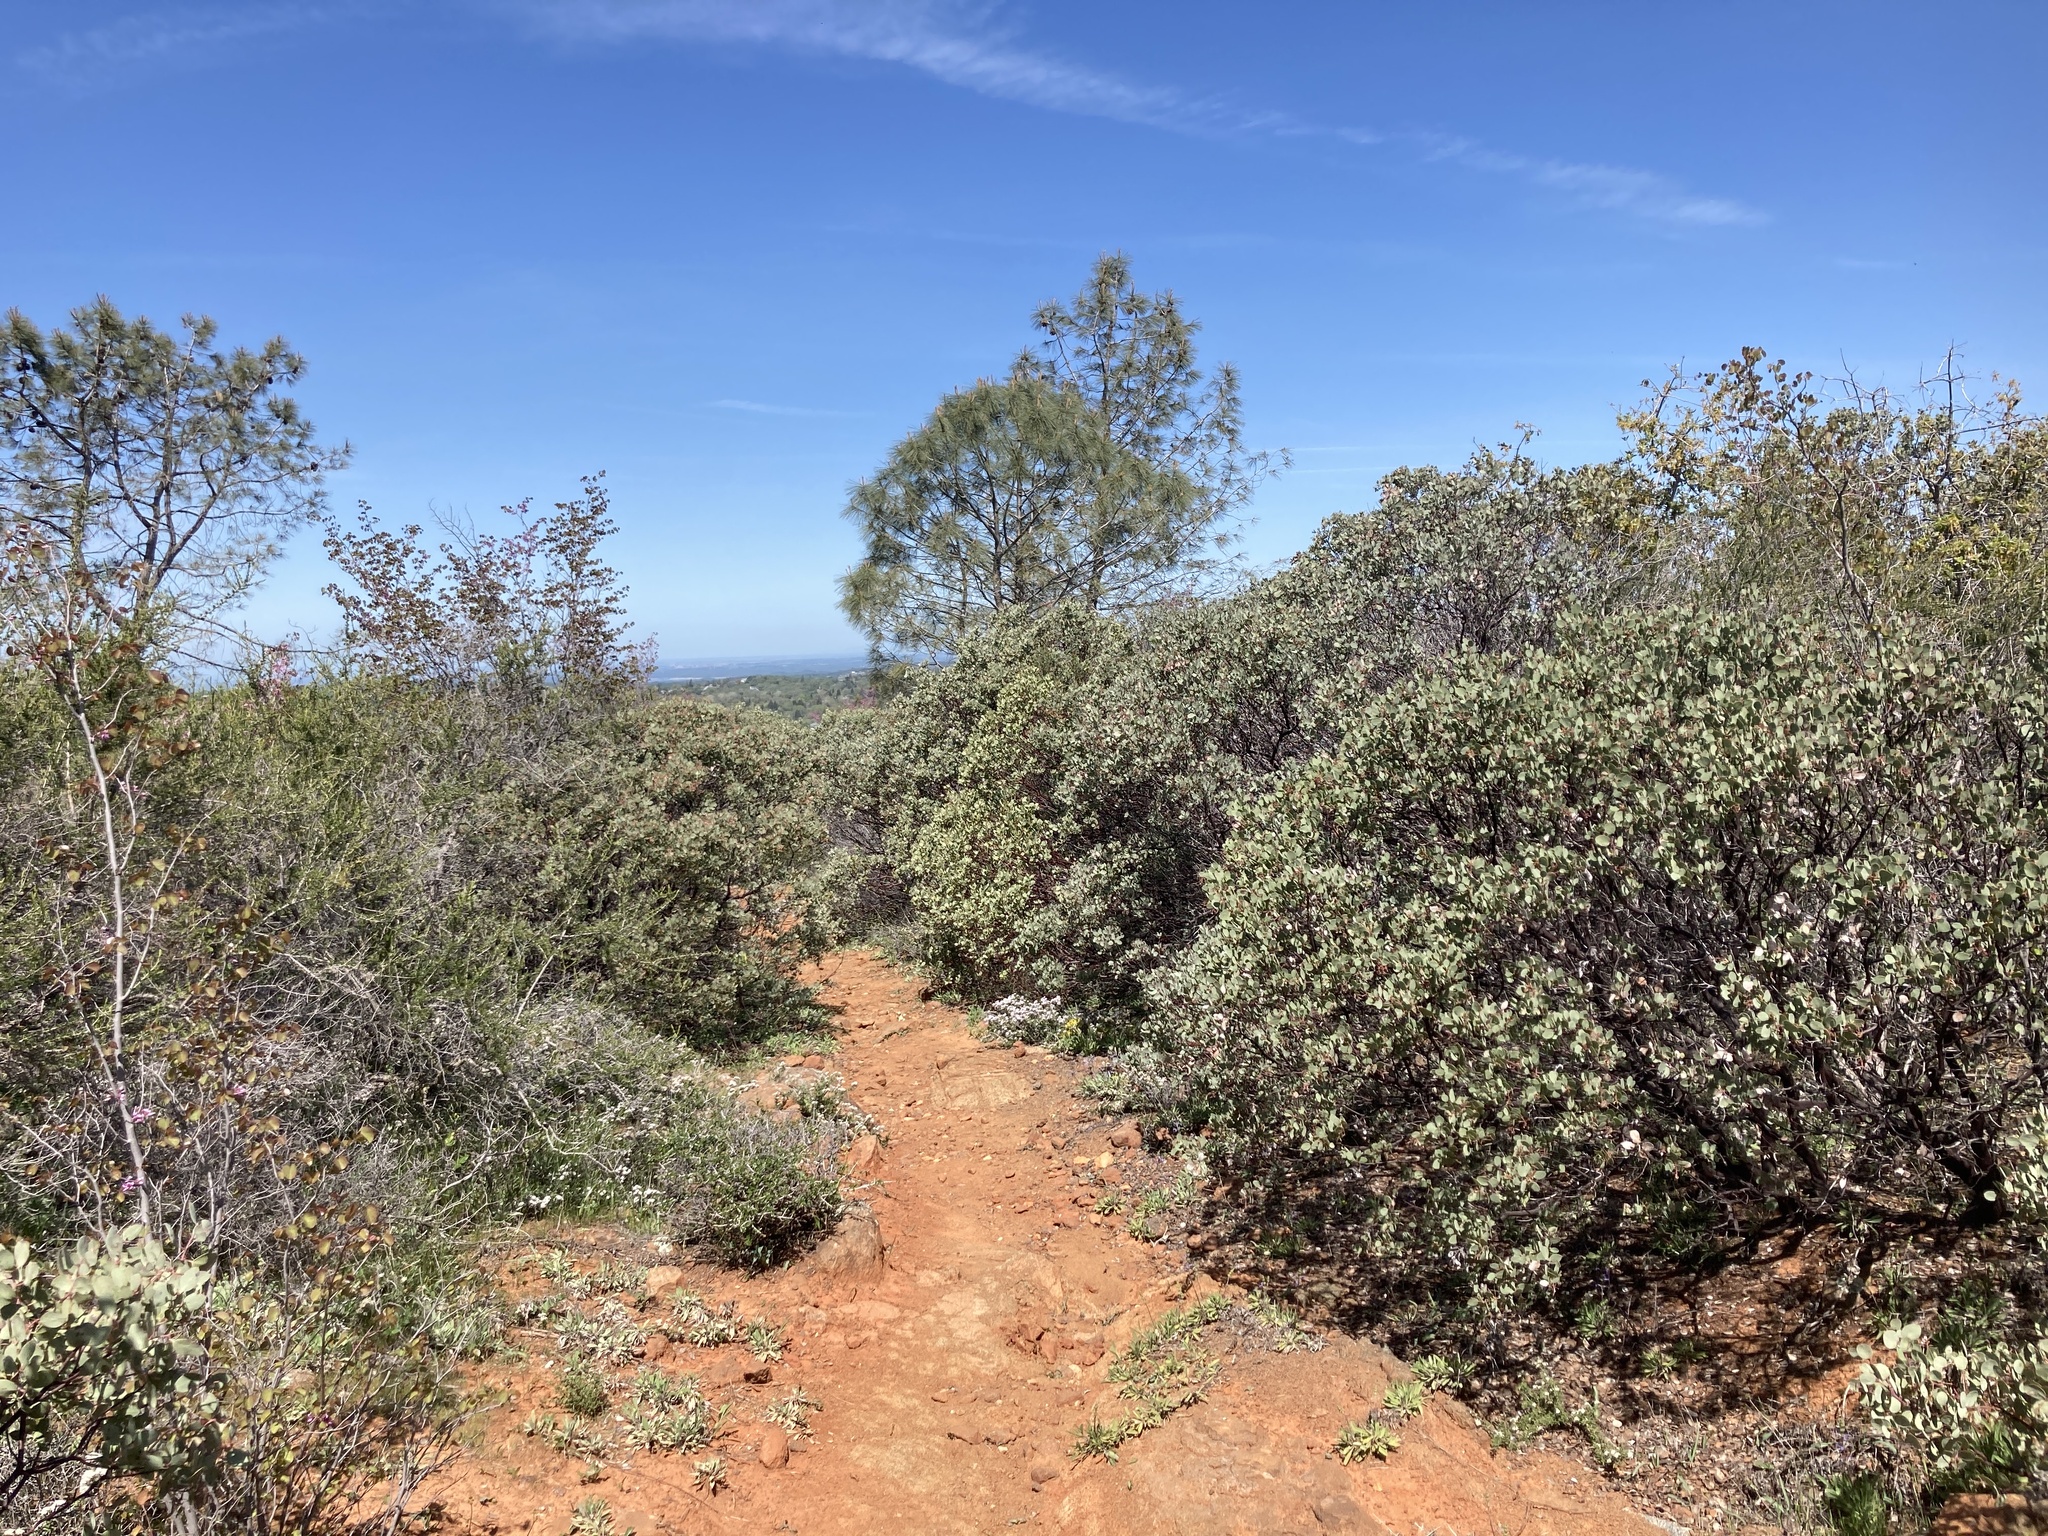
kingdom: Plantae
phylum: Tracheophyta
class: Magnoliopsida
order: Ericales
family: Ericaceae
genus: Arctostaphylos
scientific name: Arctostaphylos viscida
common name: White-leaf manzanita
